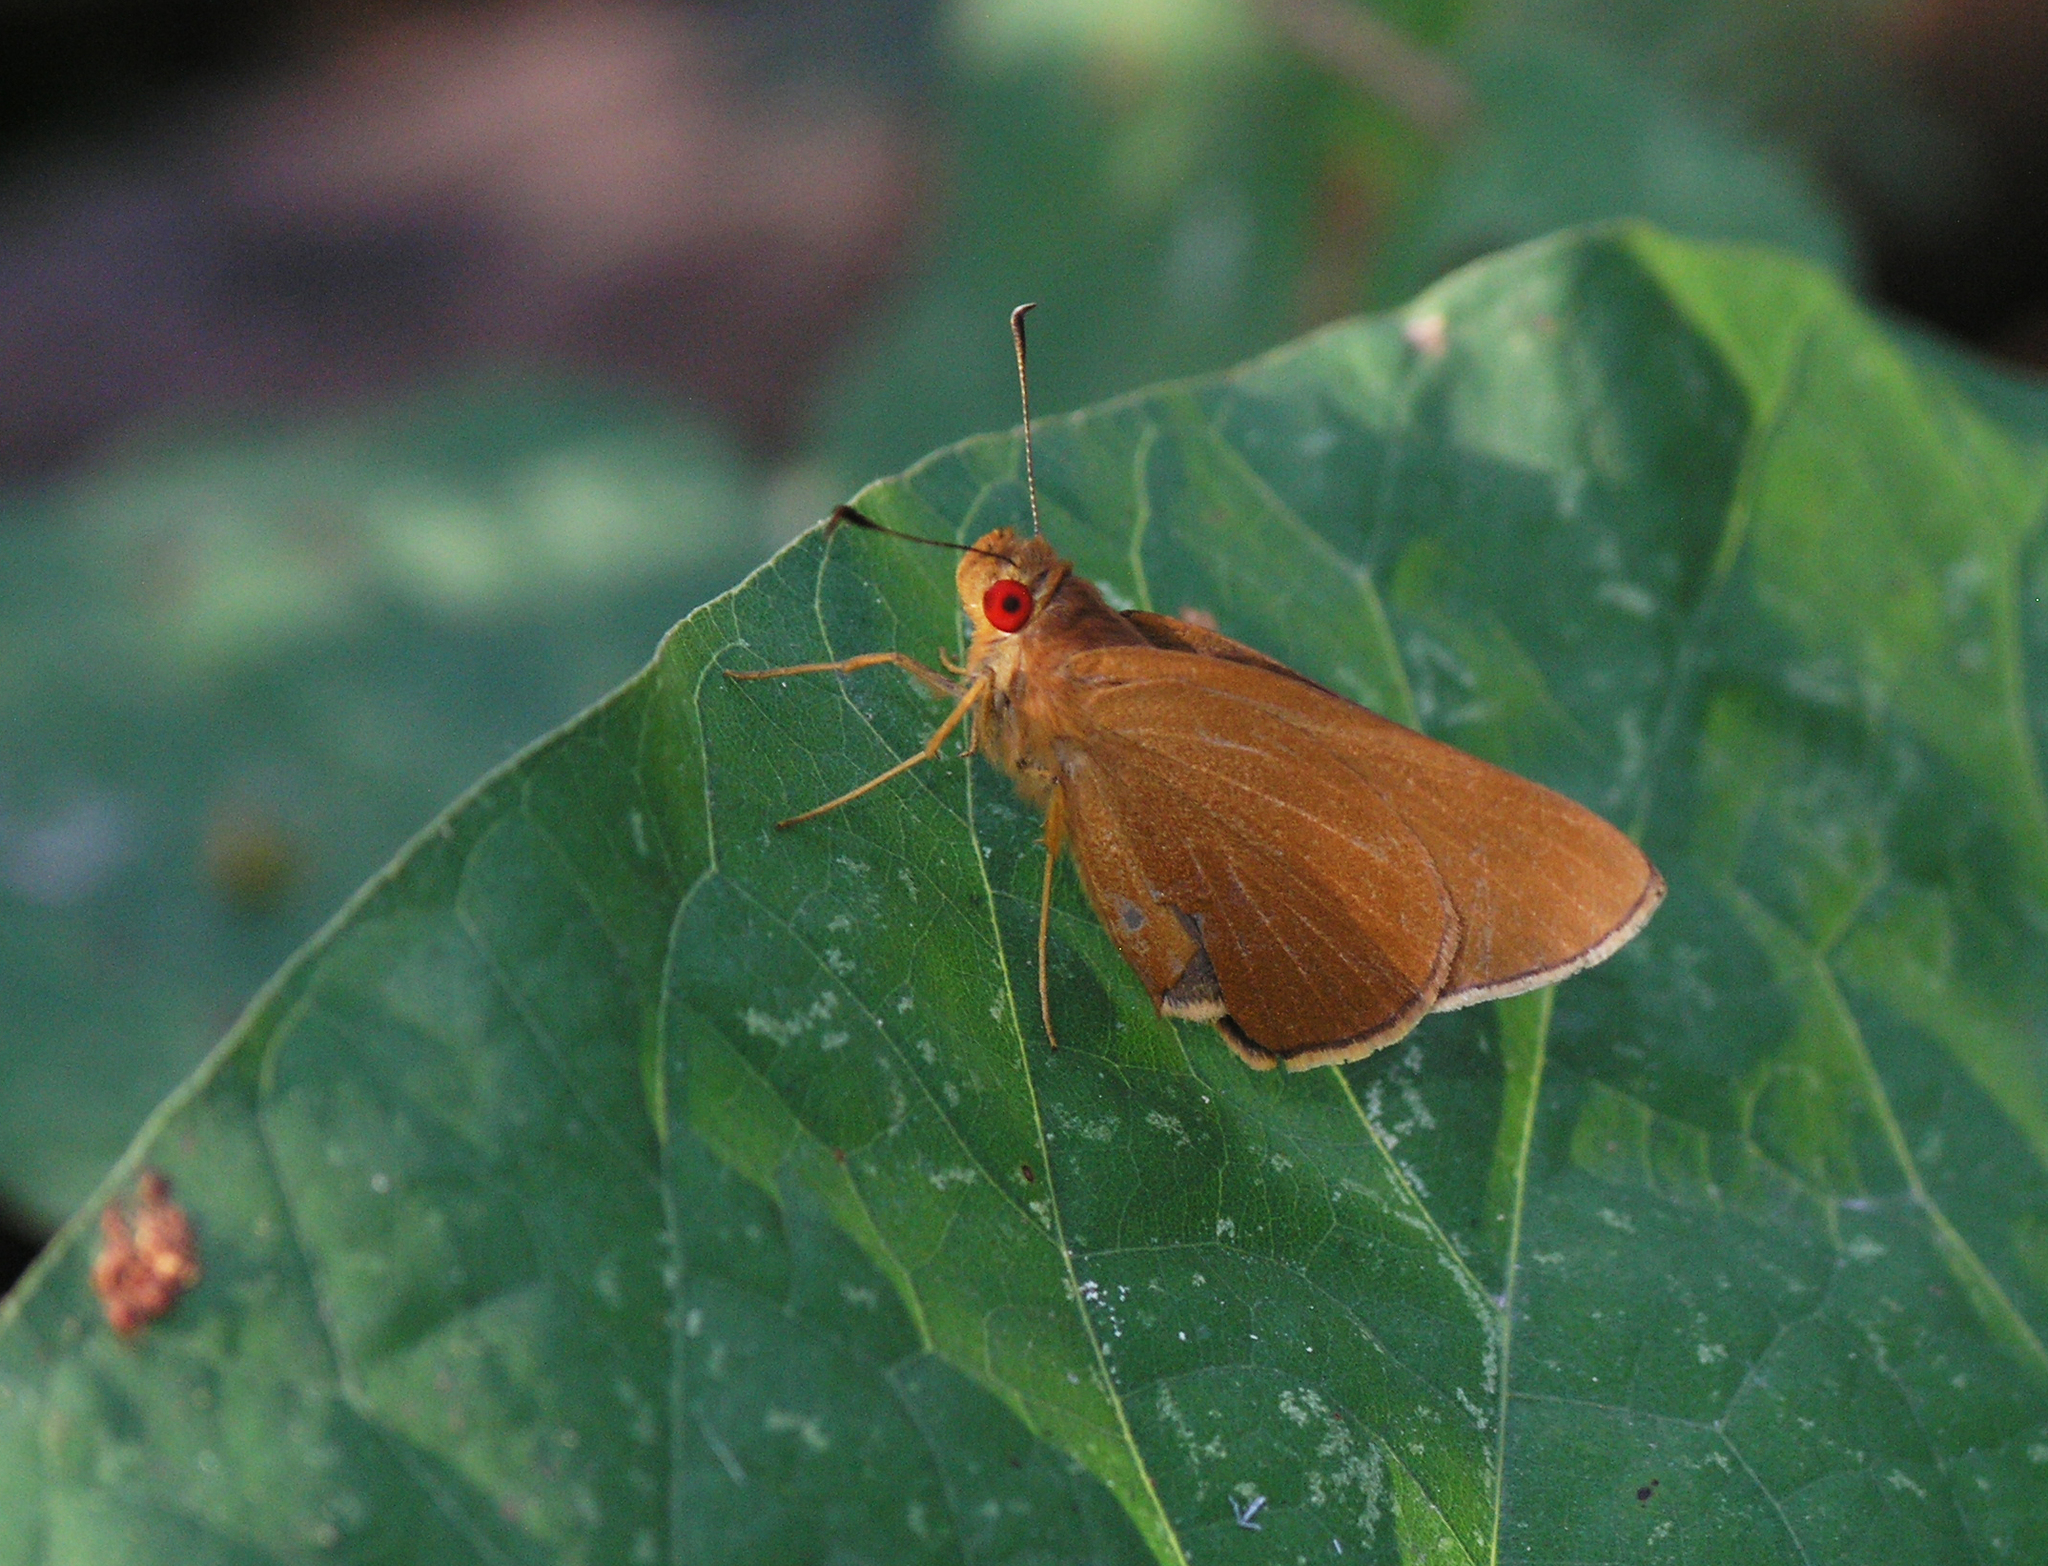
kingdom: Animalia
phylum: Arthropoda
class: Insecta
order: Lepidoptera
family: Hesperiidae
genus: Matapa
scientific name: Matapa aria
